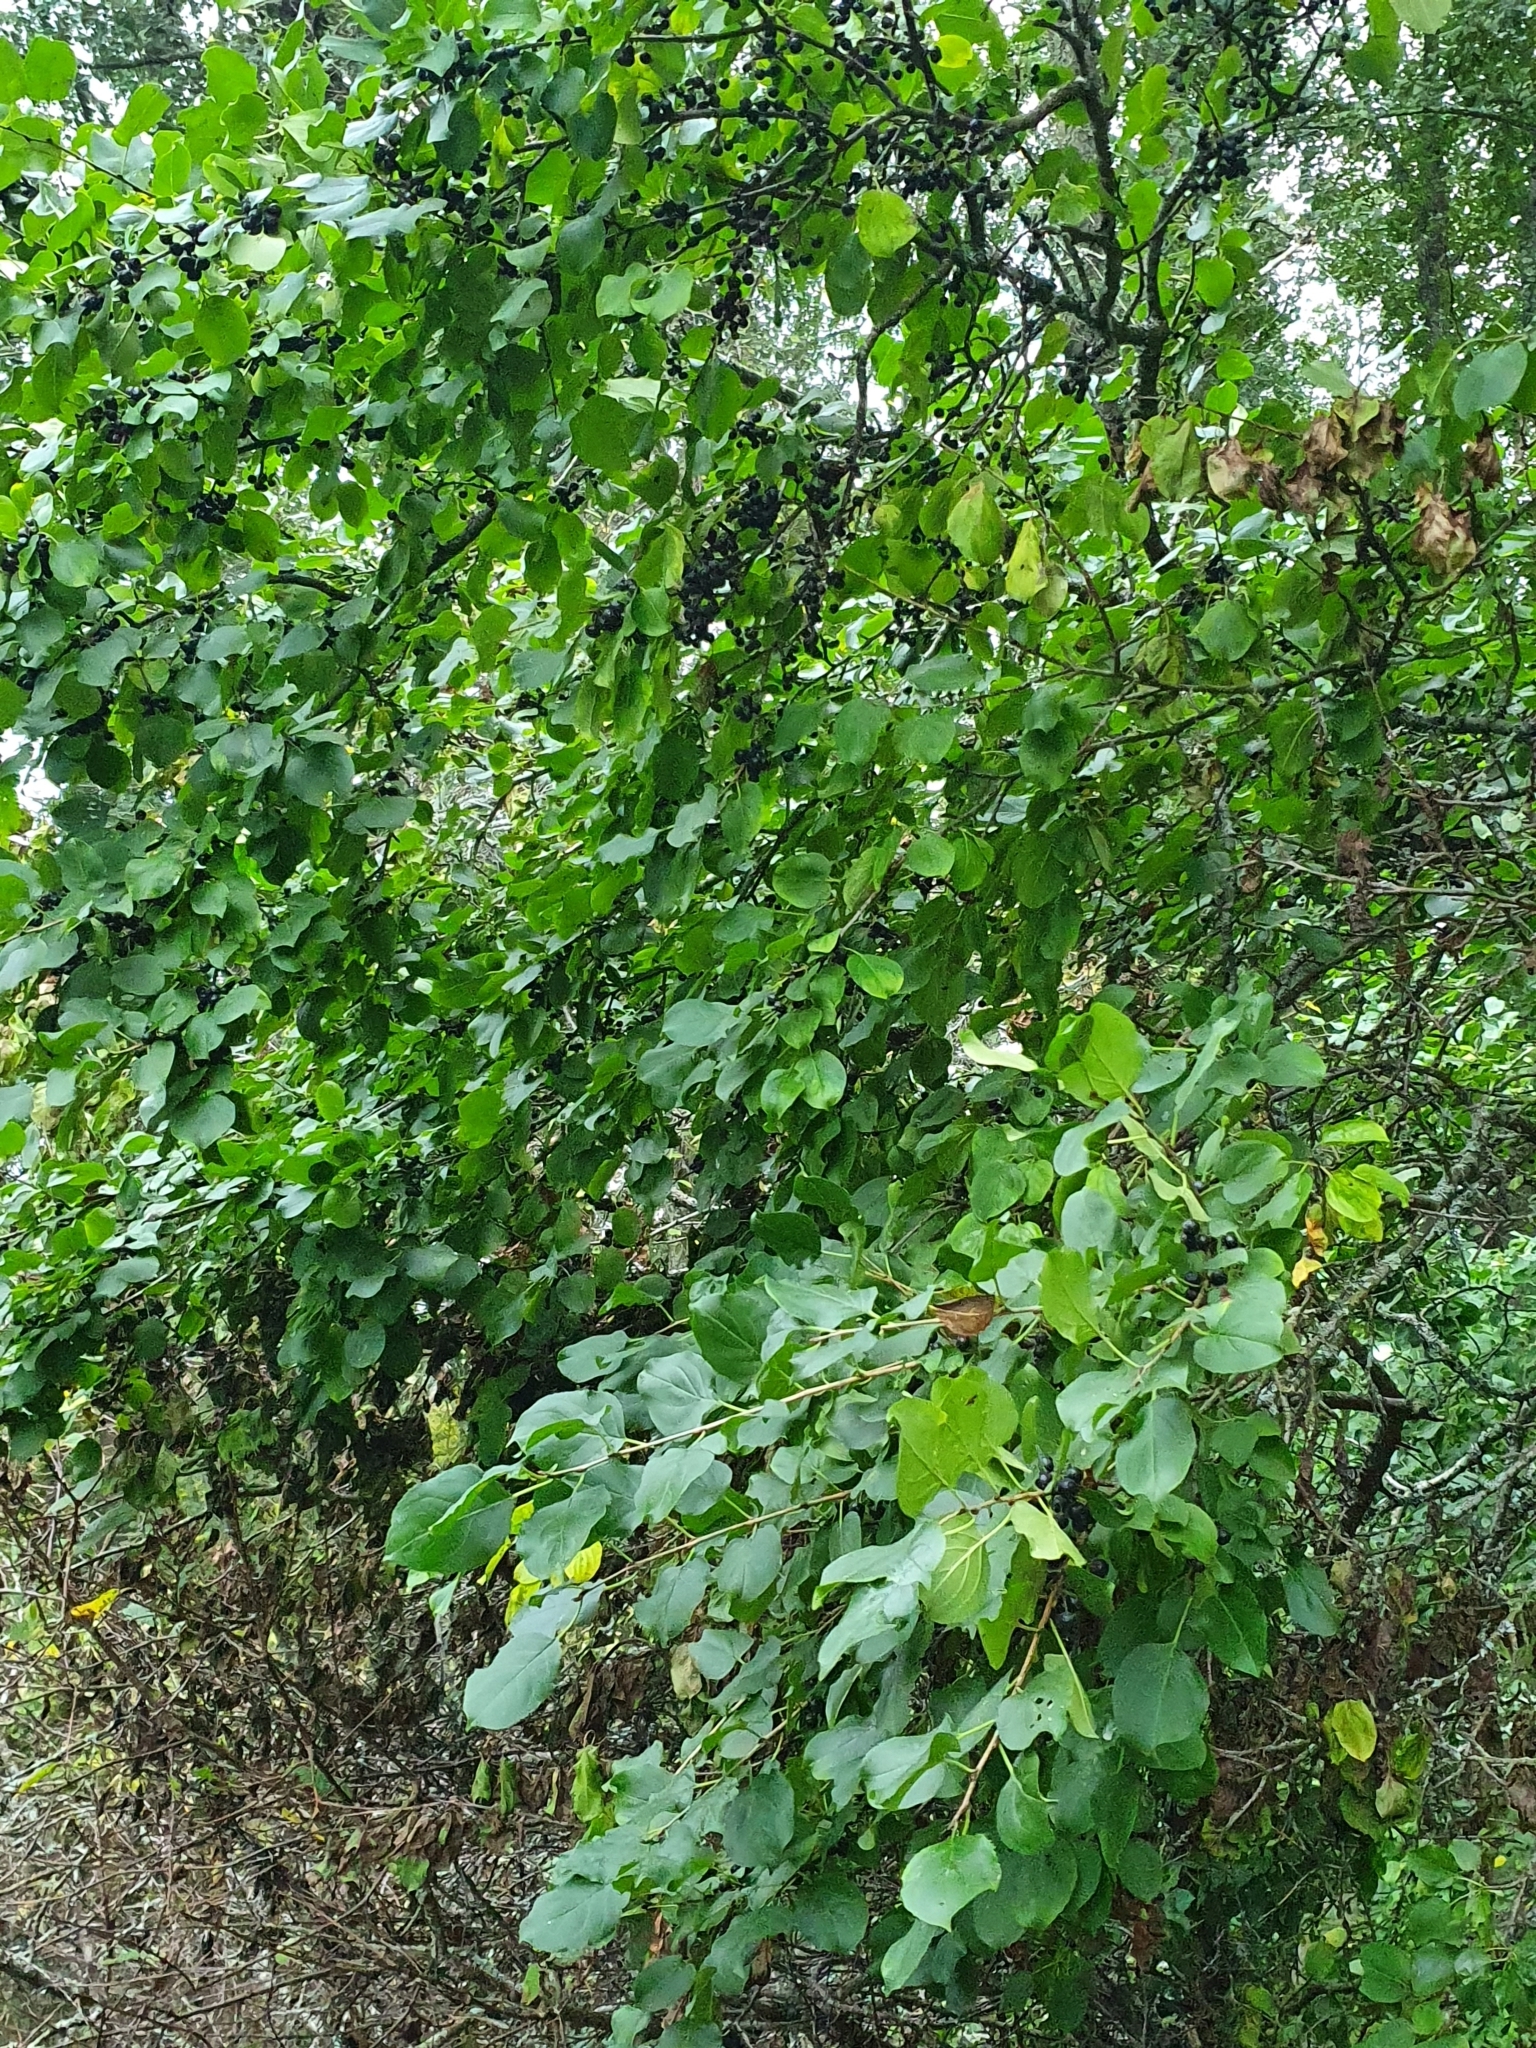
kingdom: Plantae
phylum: Tracheophyta
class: Magnoliopsida
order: Rosales
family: Rhamnaceae
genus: Rhamnus
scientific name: Rhamnus cathartica
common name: Common buckthorn
